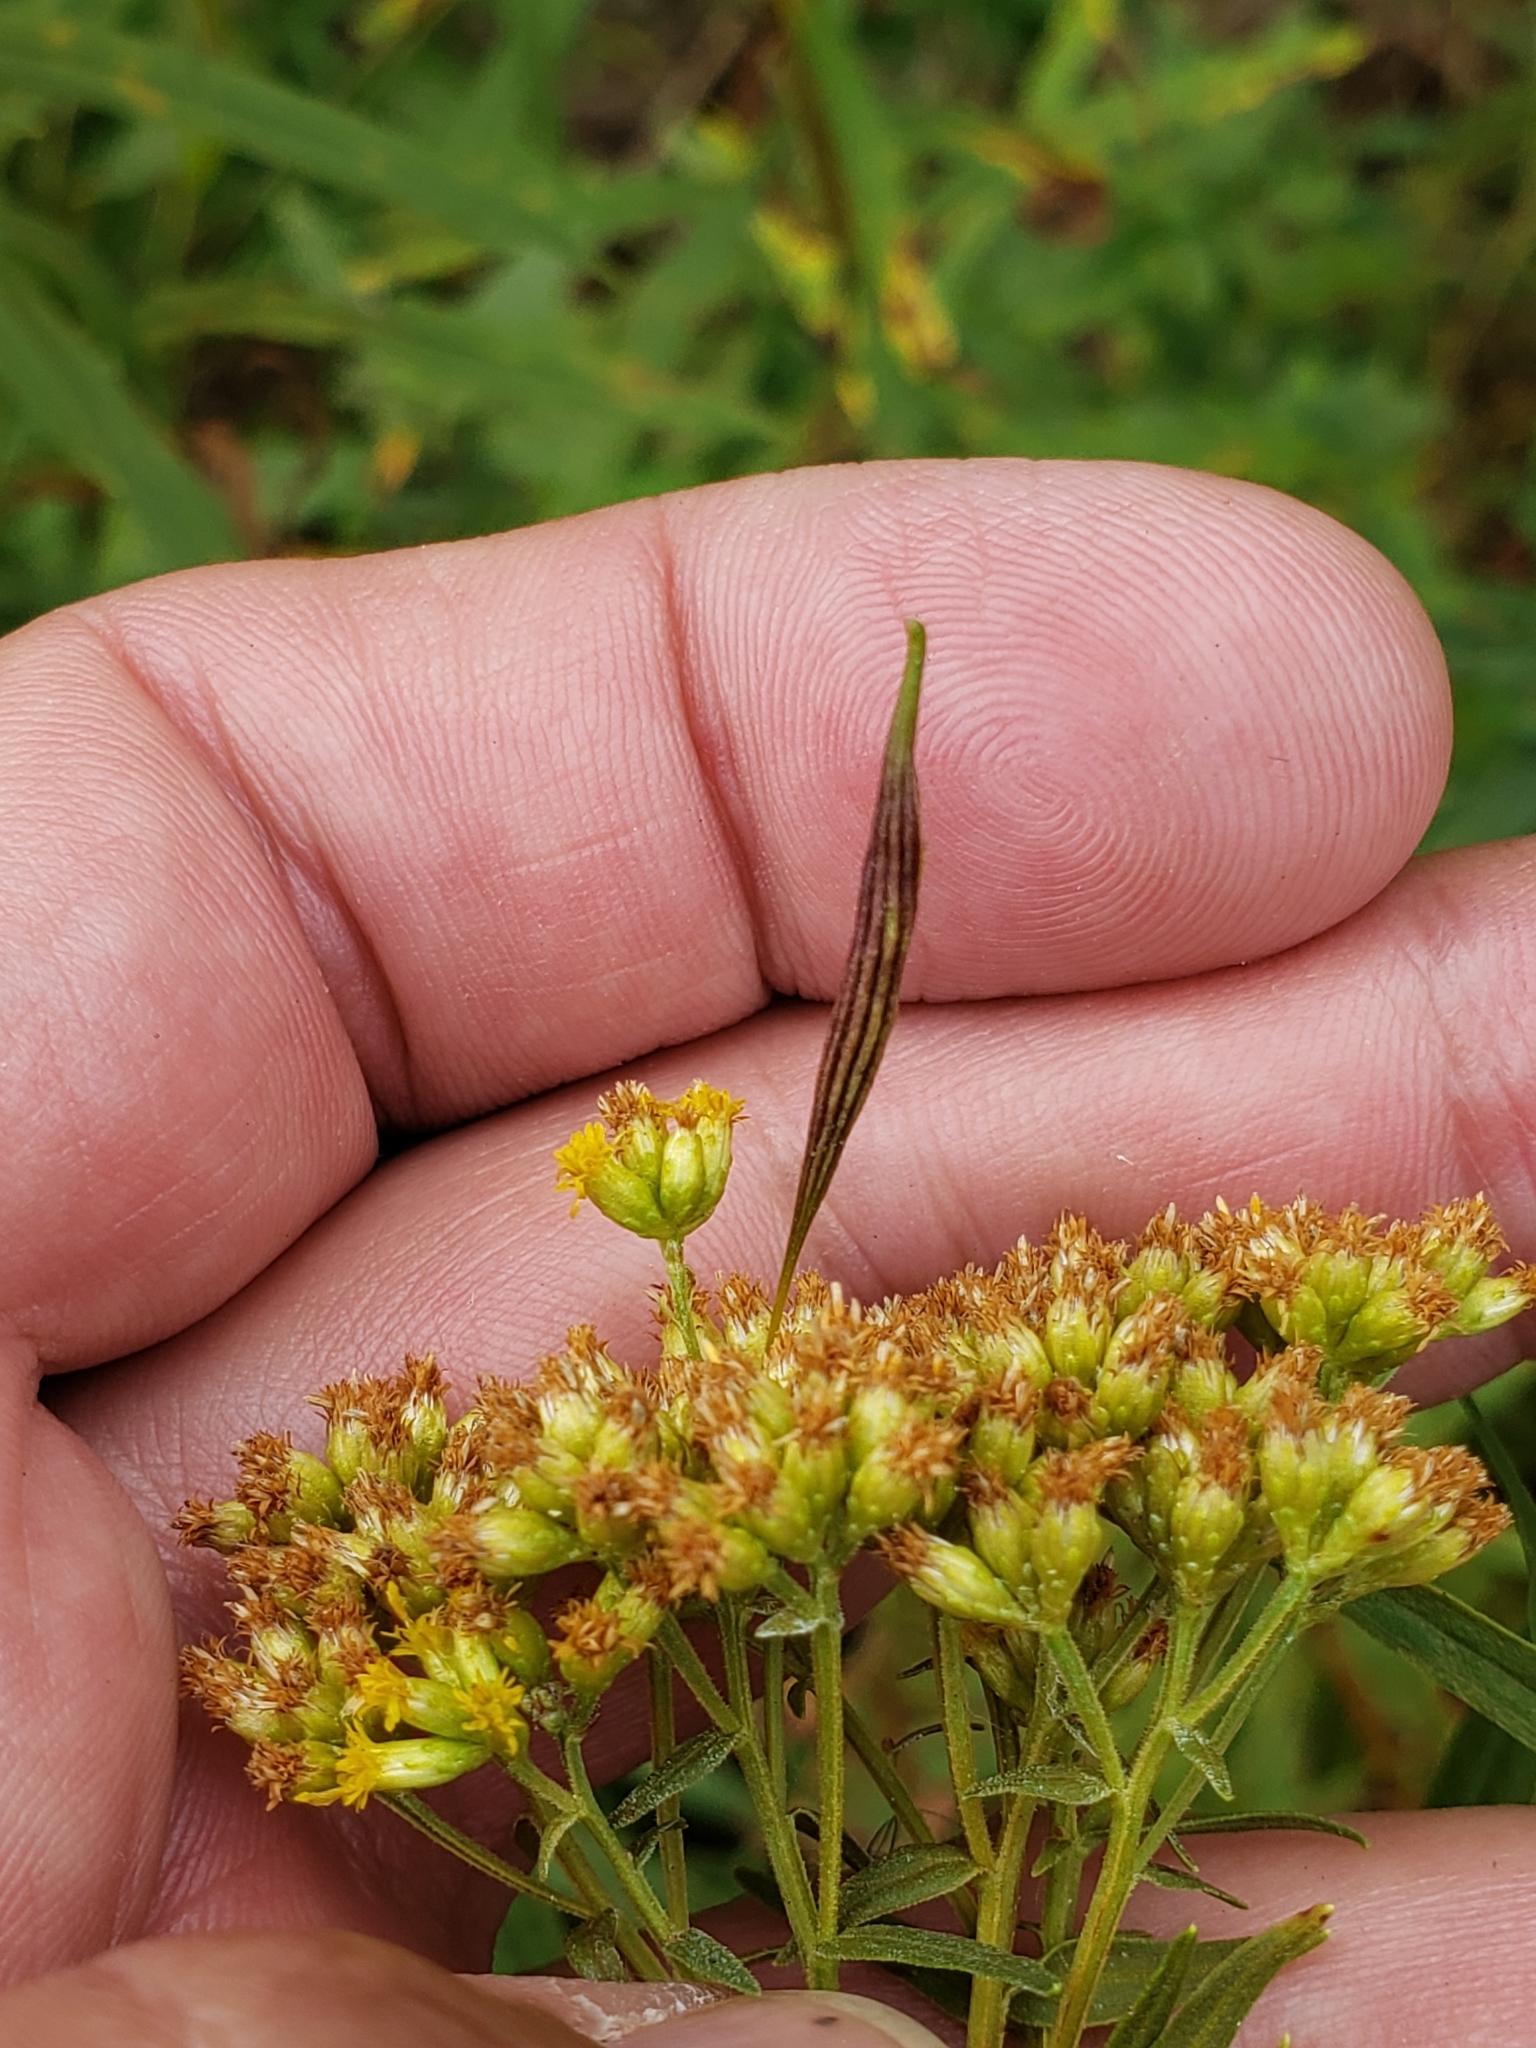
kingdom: Animalia
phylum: Arthropoda
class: Insecta
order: Diptera
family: Cecidomyiidae
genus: Rhopalomyia
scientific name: Rhopalomyia pedicellata
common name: Goldentop pedicellate gall midge
